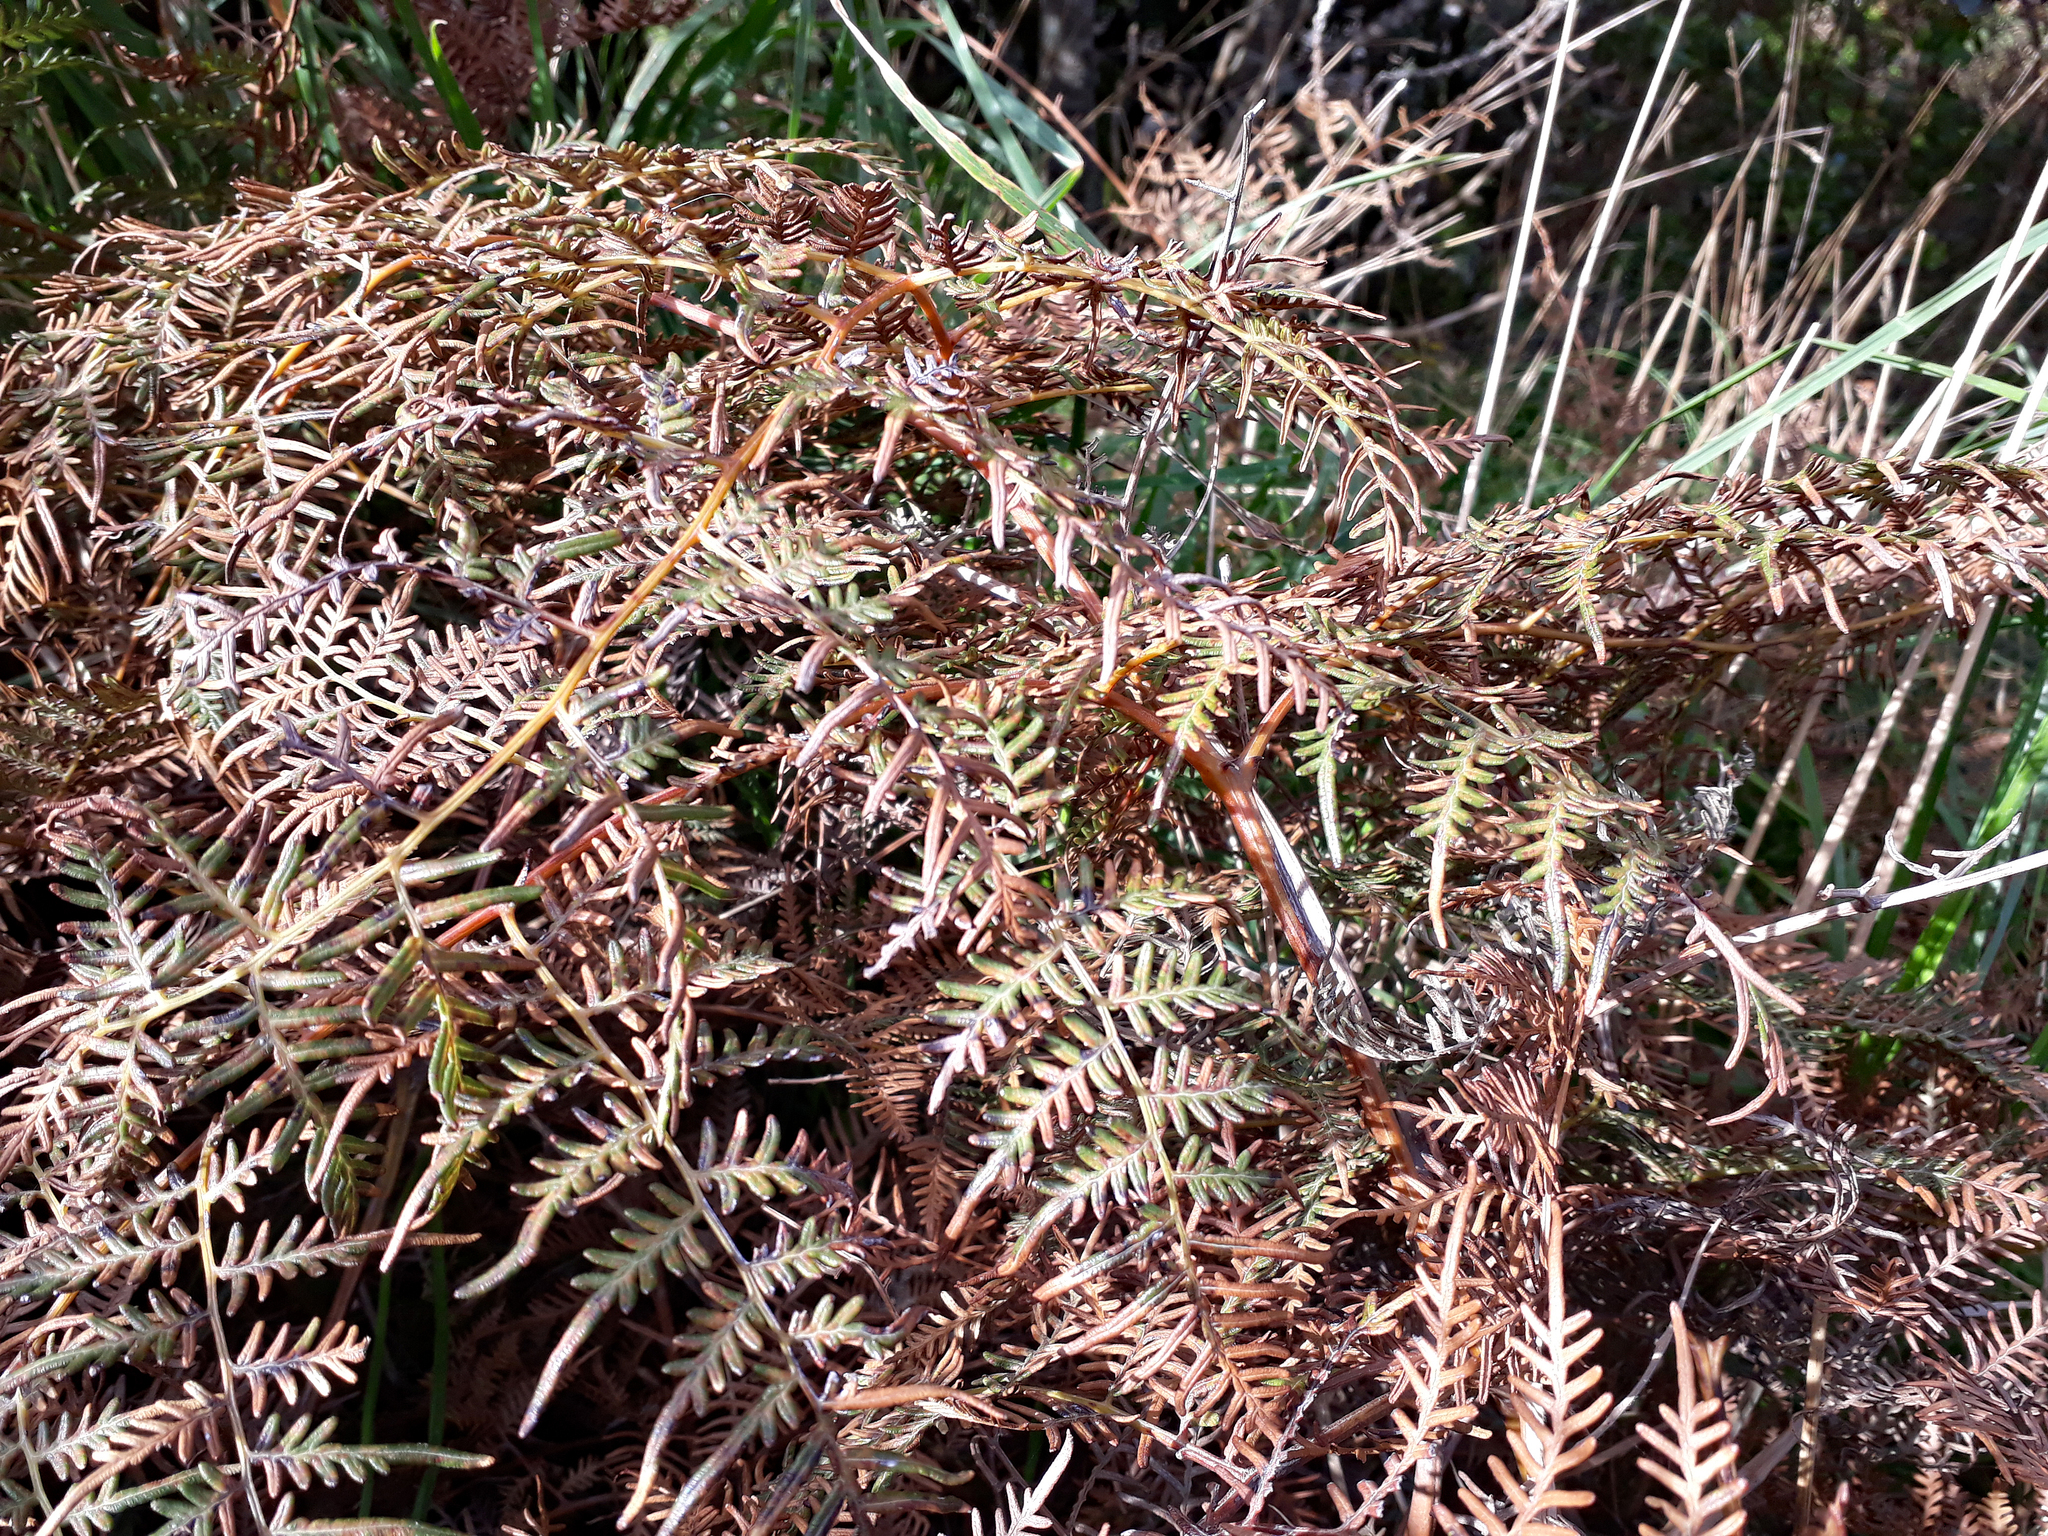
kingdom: Plantae
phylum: Tracheophyta
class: Polypodiopsida
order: Polypodiales
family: Dennstaedtiaceae
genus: Pteridium
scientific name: Pteridium esculentum
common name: Bracken fern
